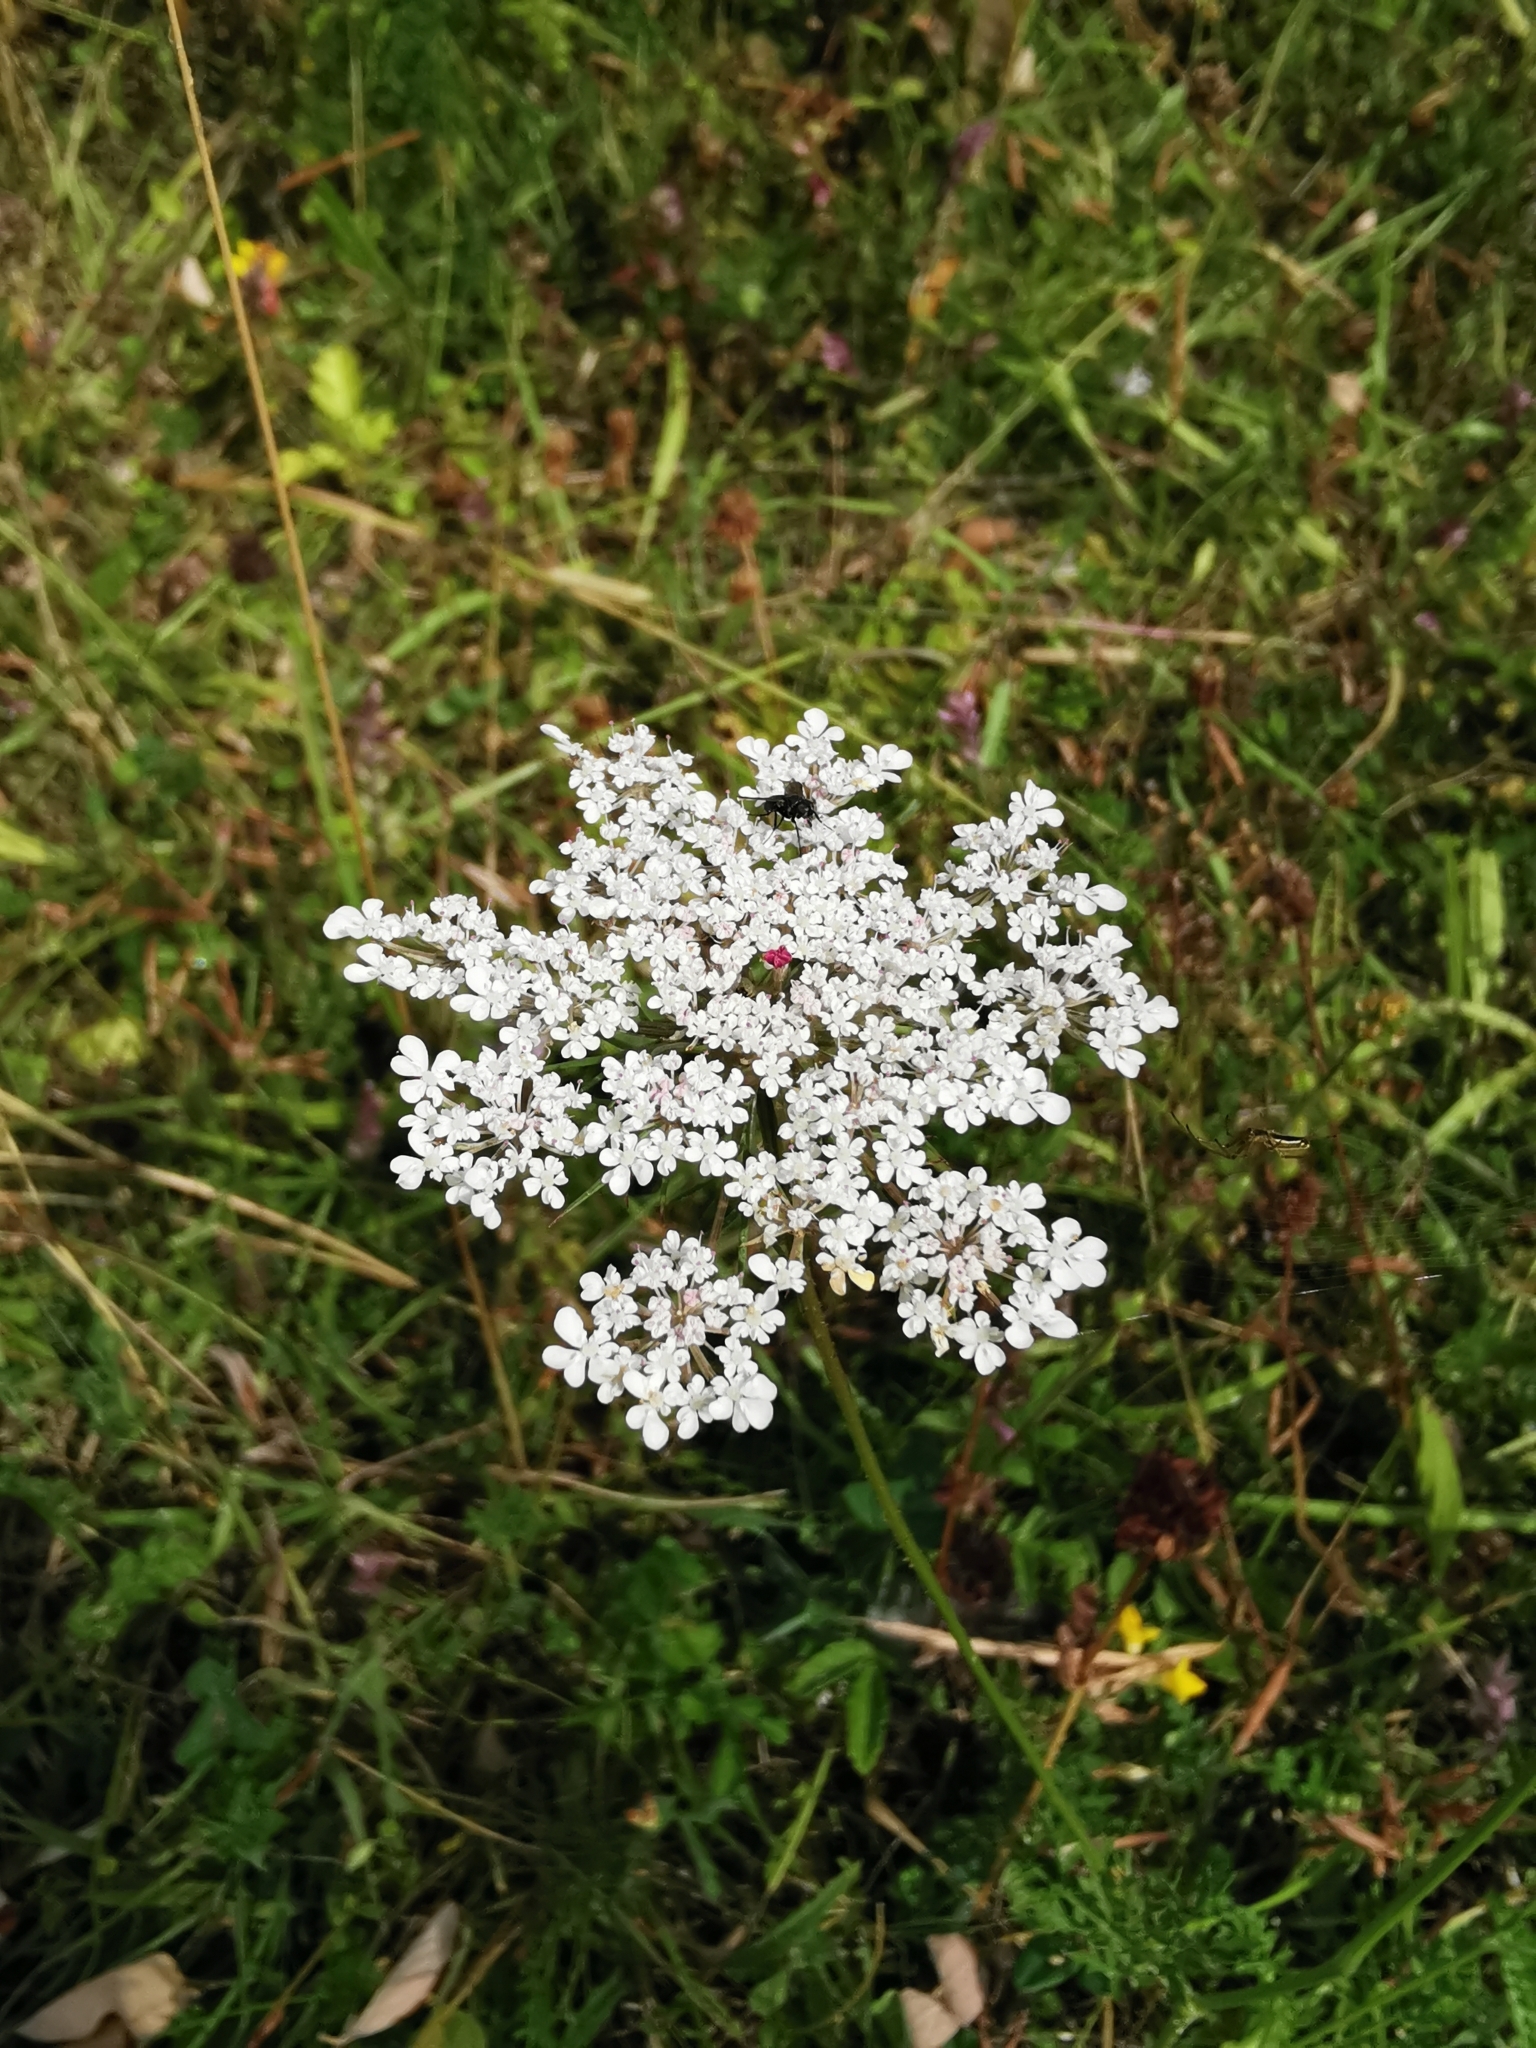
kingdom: Plantae
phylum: Tracheophyta
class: Magnoliopsida
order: Apiales
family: Apiaceae
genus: Daucus
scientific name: Daucus carota
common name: Wild carrot
